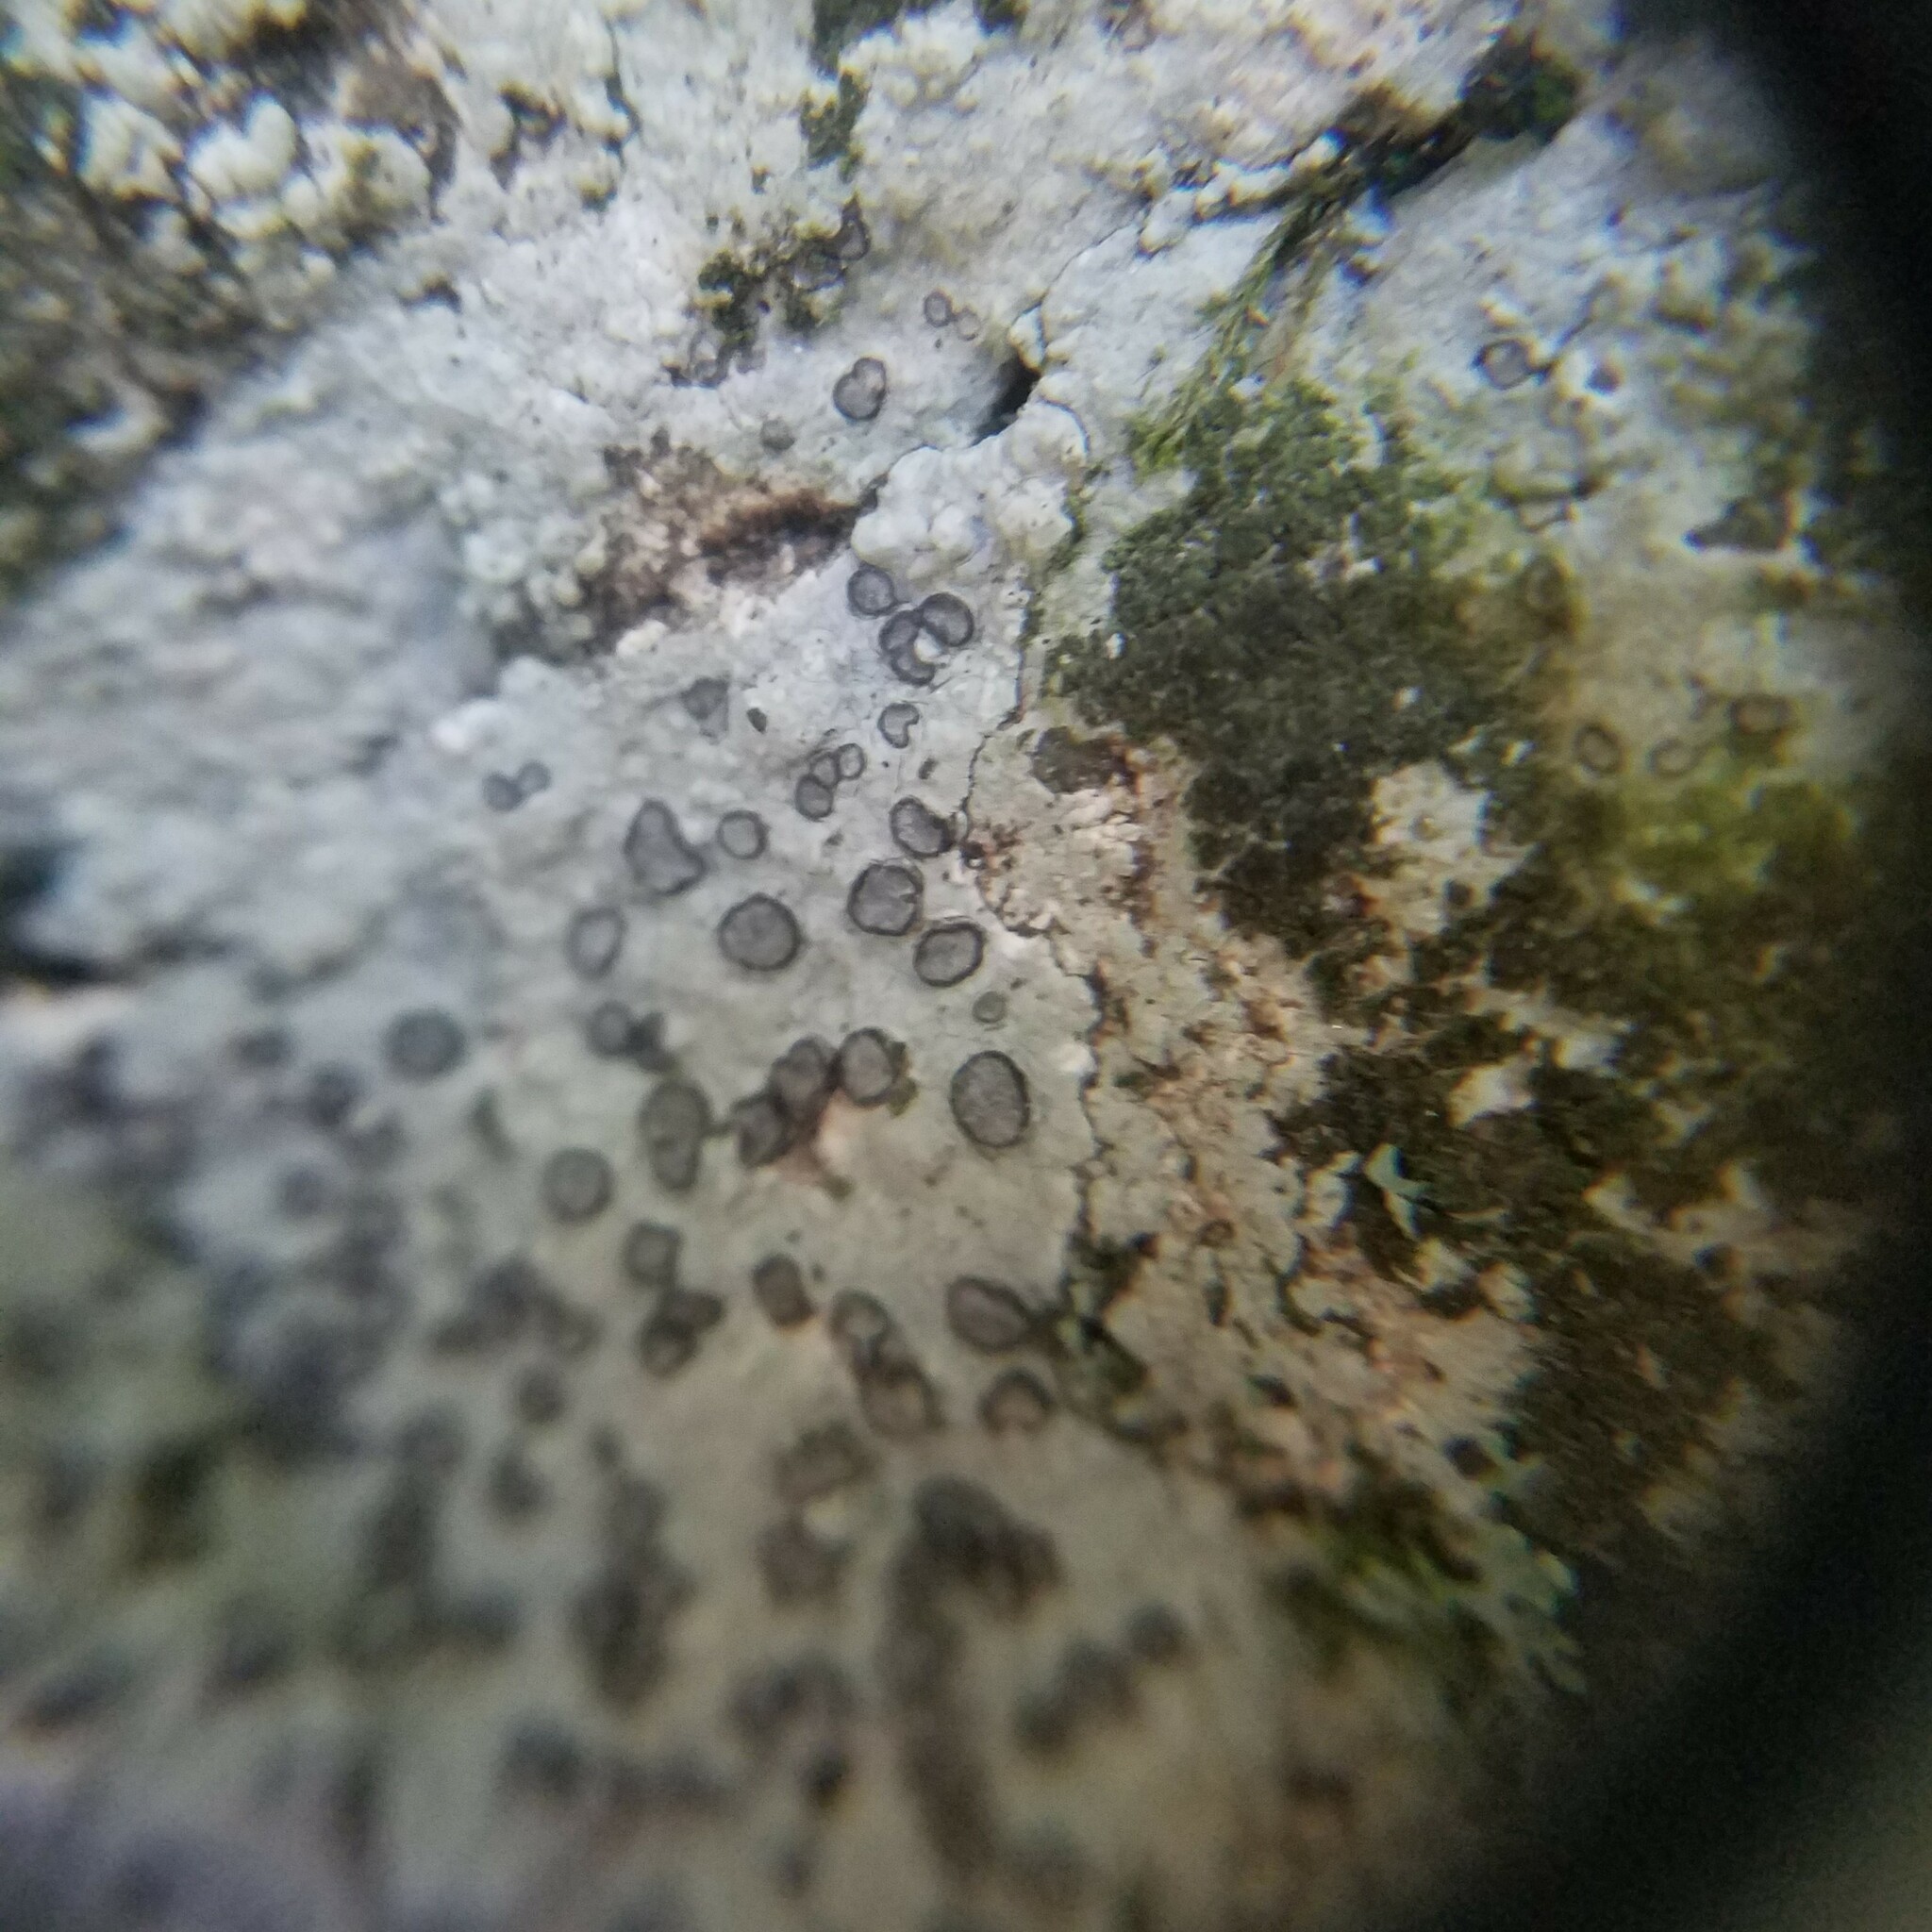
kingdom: Fungi
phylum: Ascomycota
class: Lecanoromycetes
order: Lecideales
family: Lecideaceae
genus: Porpidia
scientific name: Porpidia albocaerulescens
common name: Smokey-eyed boulder lichen
